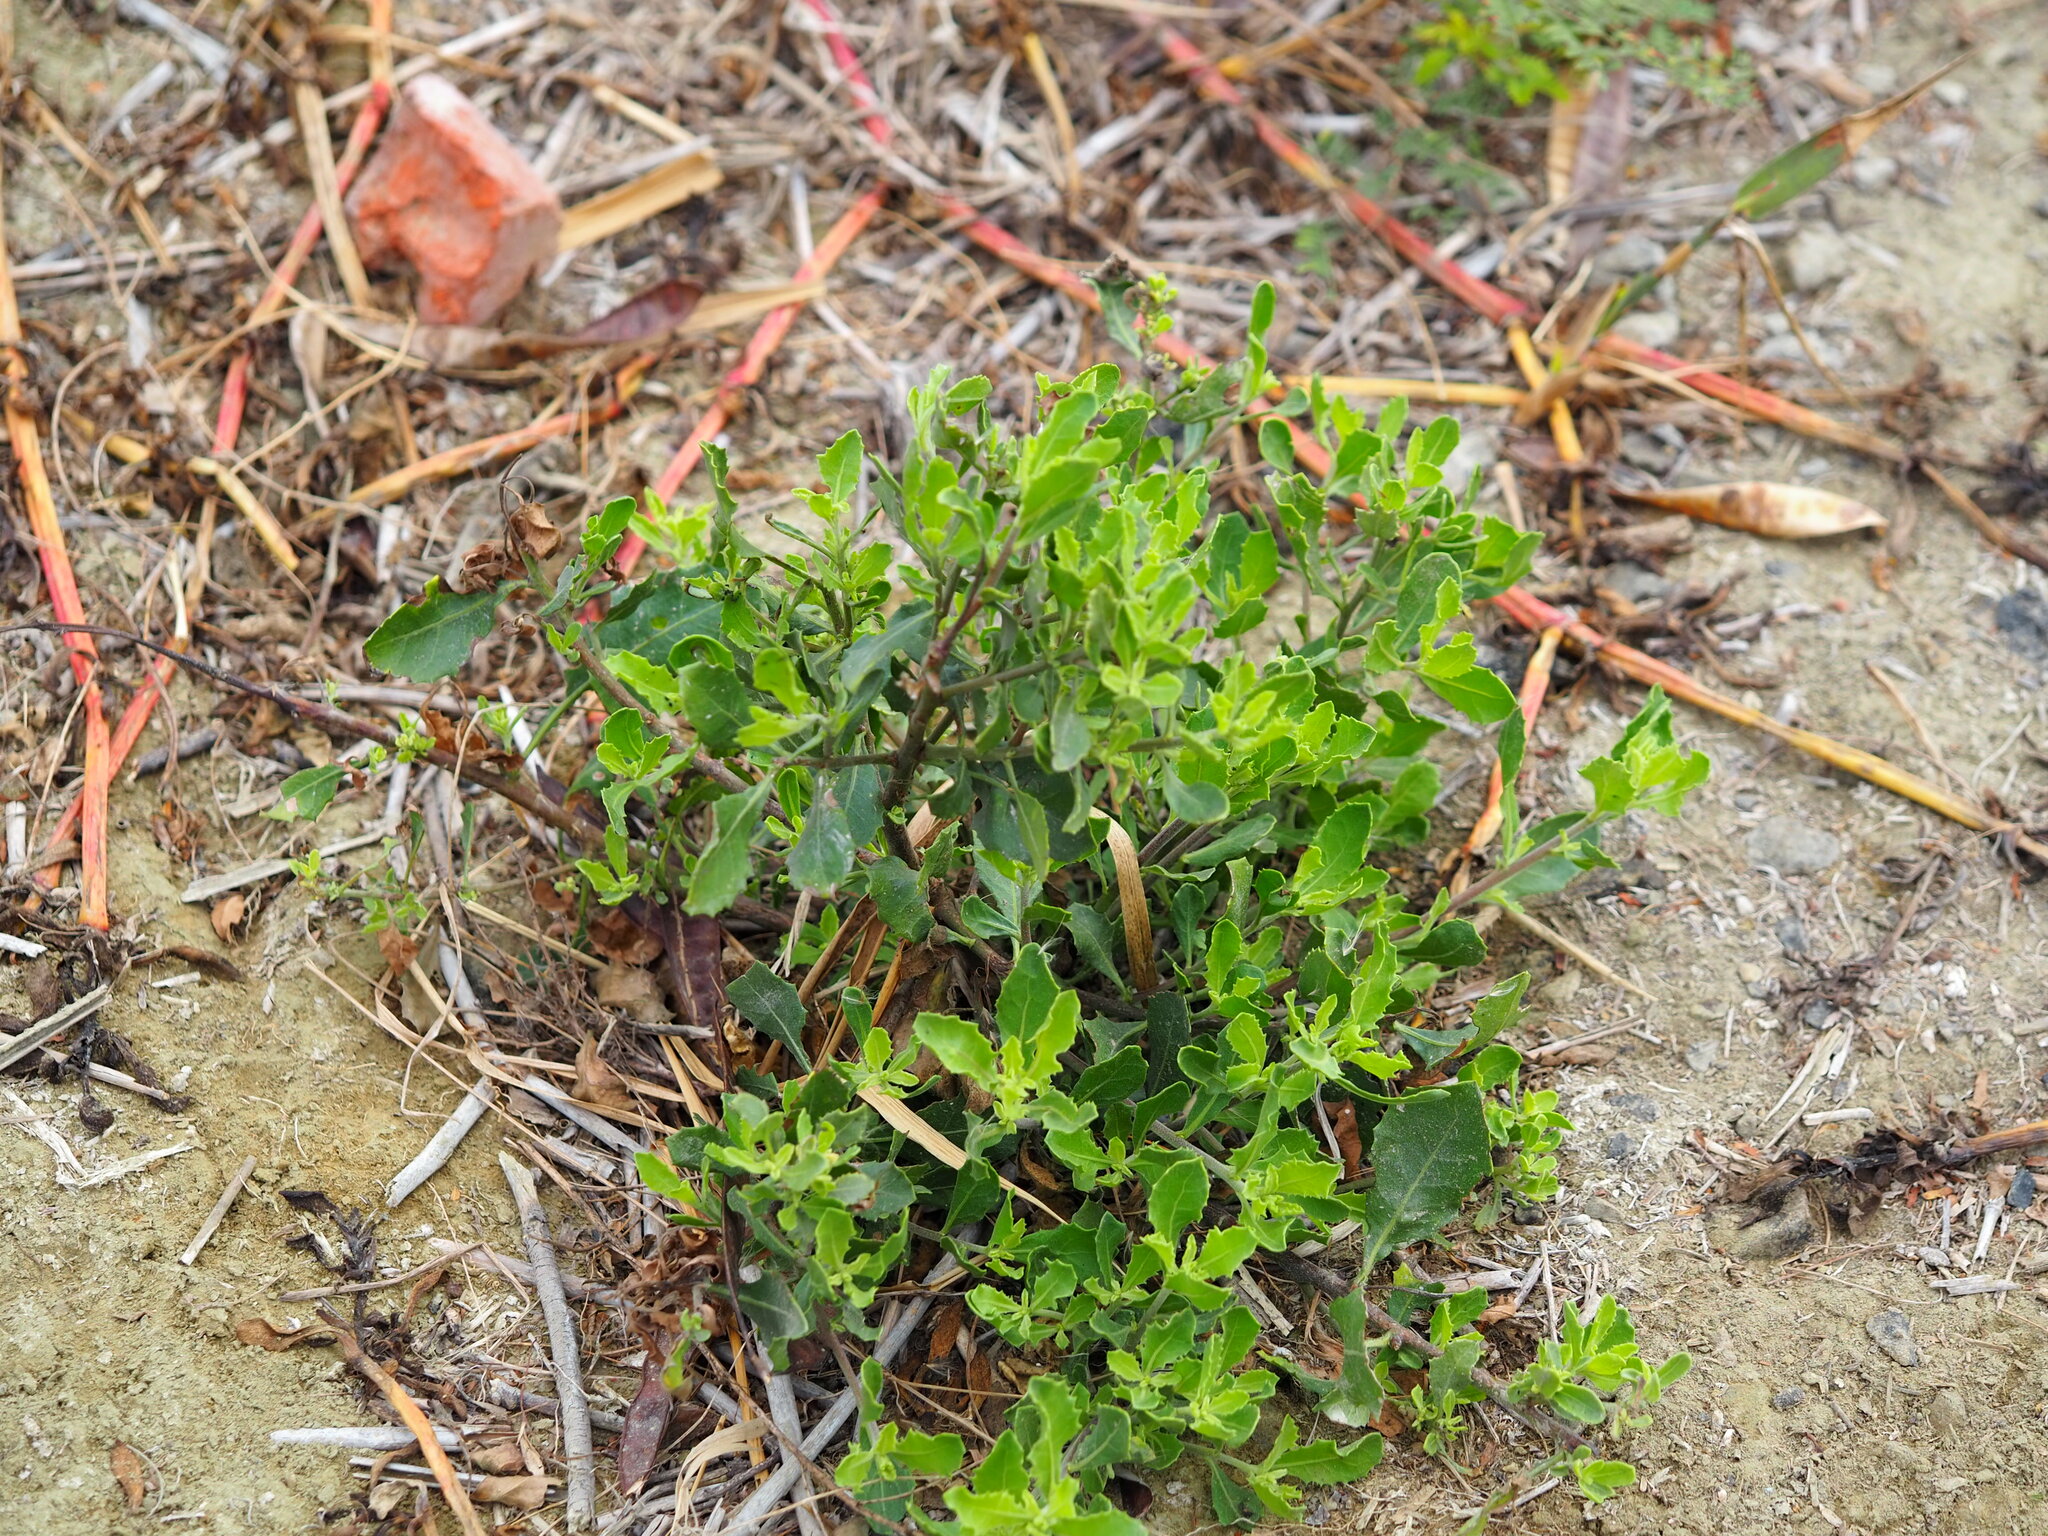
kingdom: Plantae
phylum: Tracheophyta
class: Magnoliopsida
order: Asterales
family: Asteraceae
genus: Pluchea
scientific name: Pluchea indica
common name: Indian fleabane
